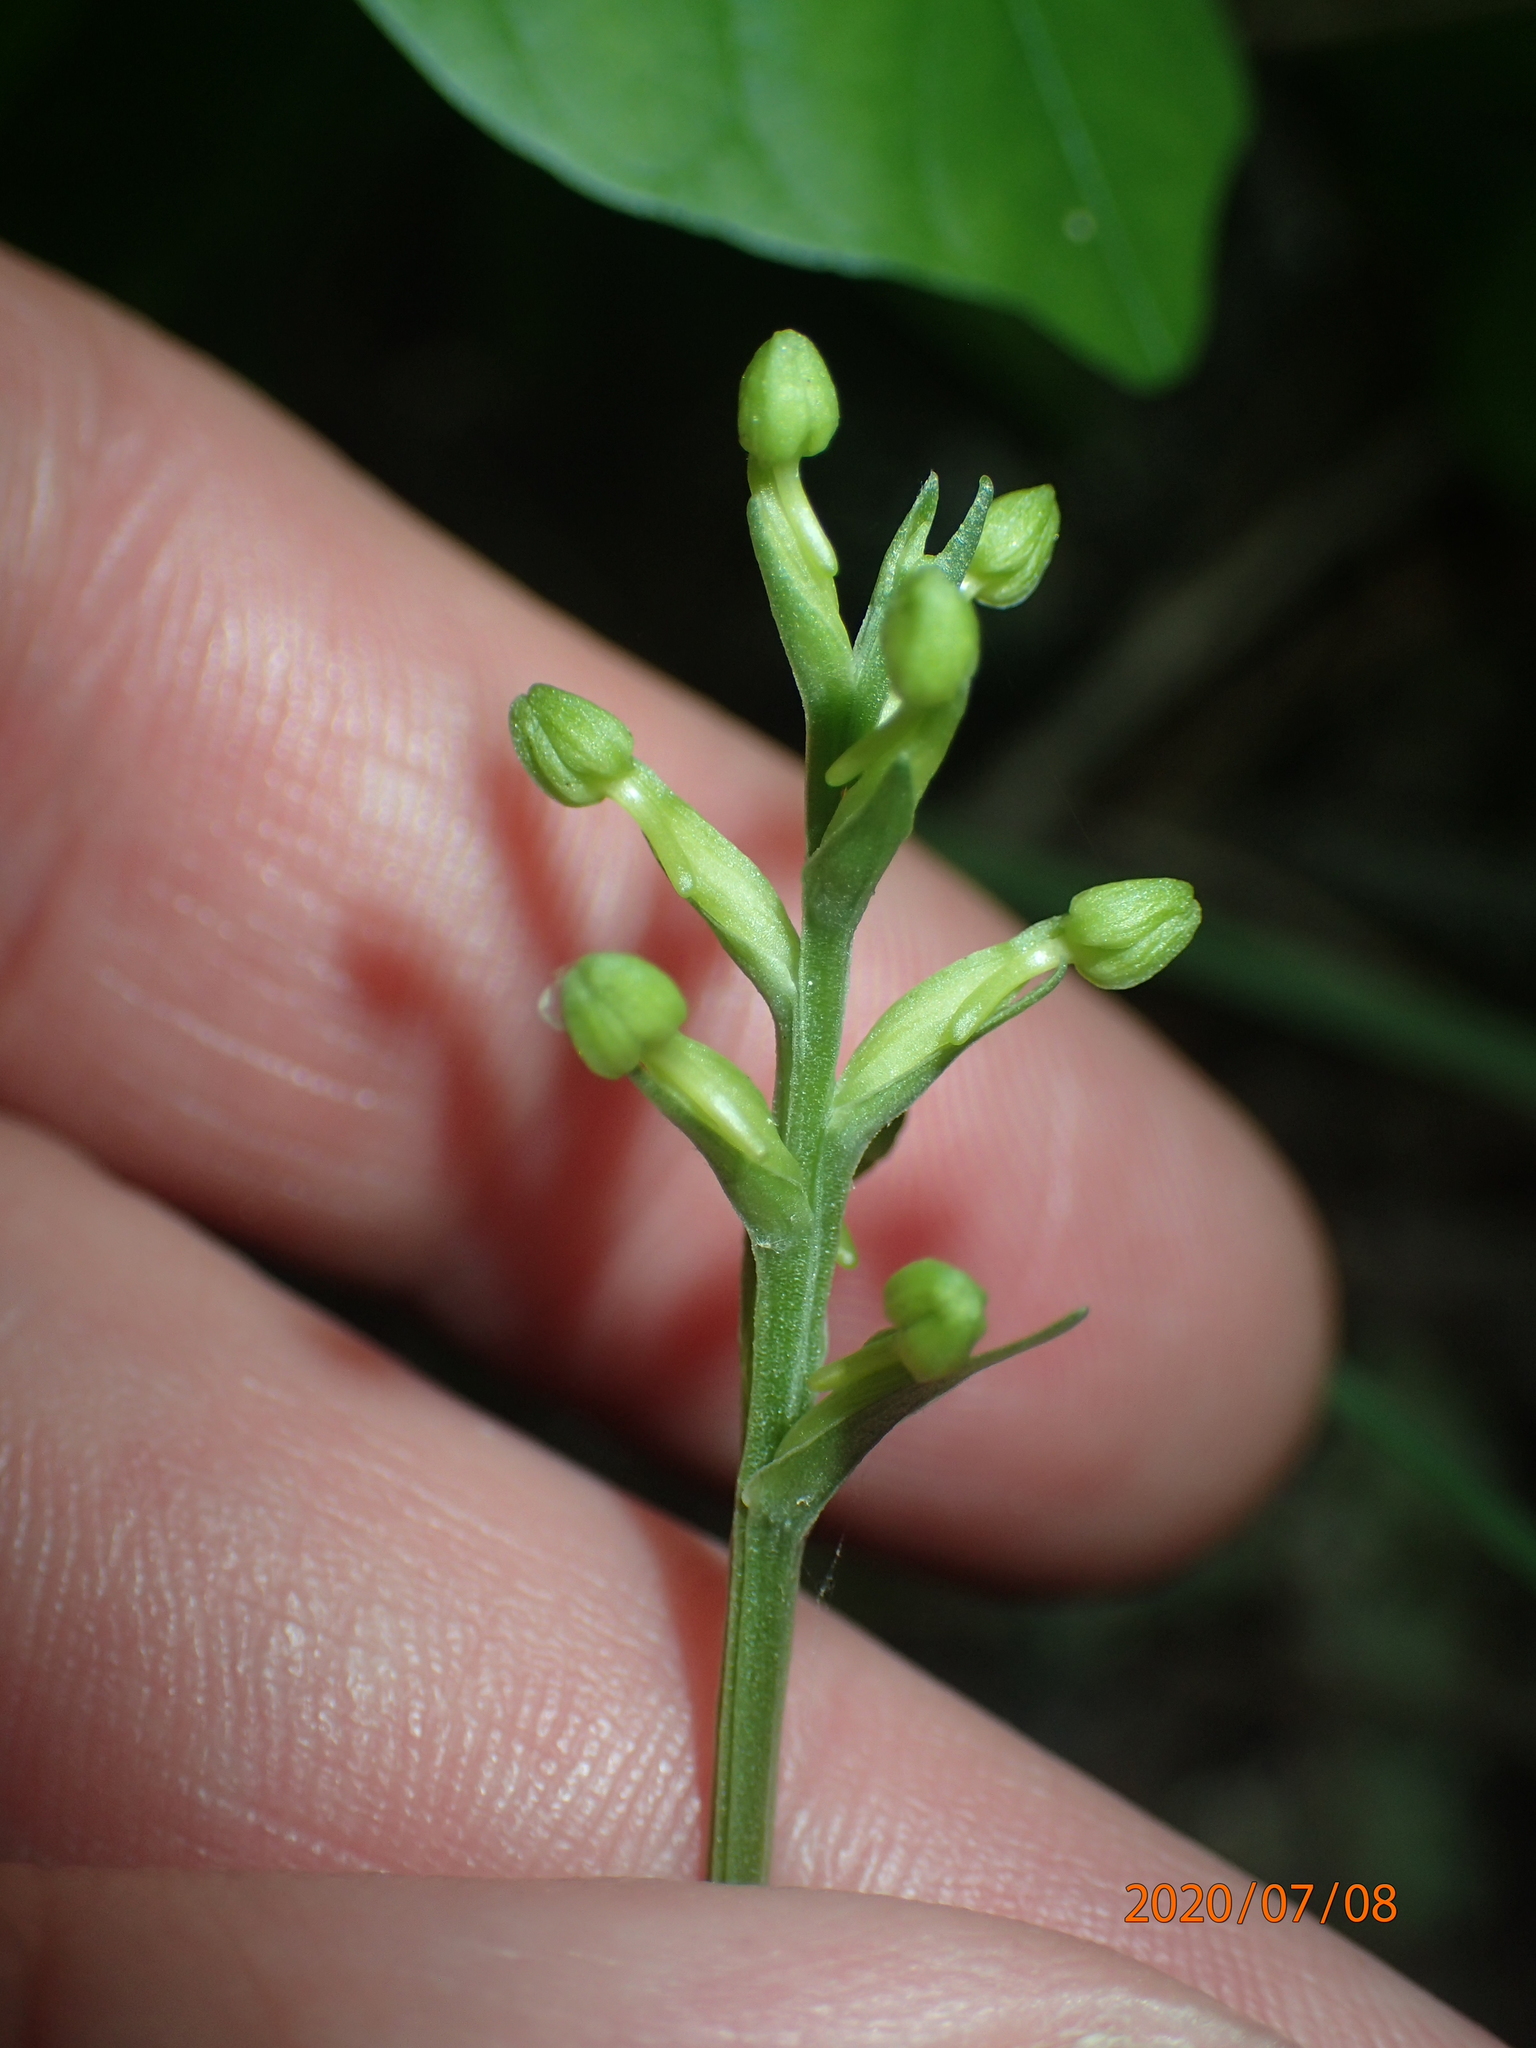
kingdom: Plantae
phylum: Tracheophyta
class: Liliopsida
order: Asparagales
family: Orchidaceae
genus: Platanthera
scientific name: Platanthera clavellata
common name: Club-spur orchid
